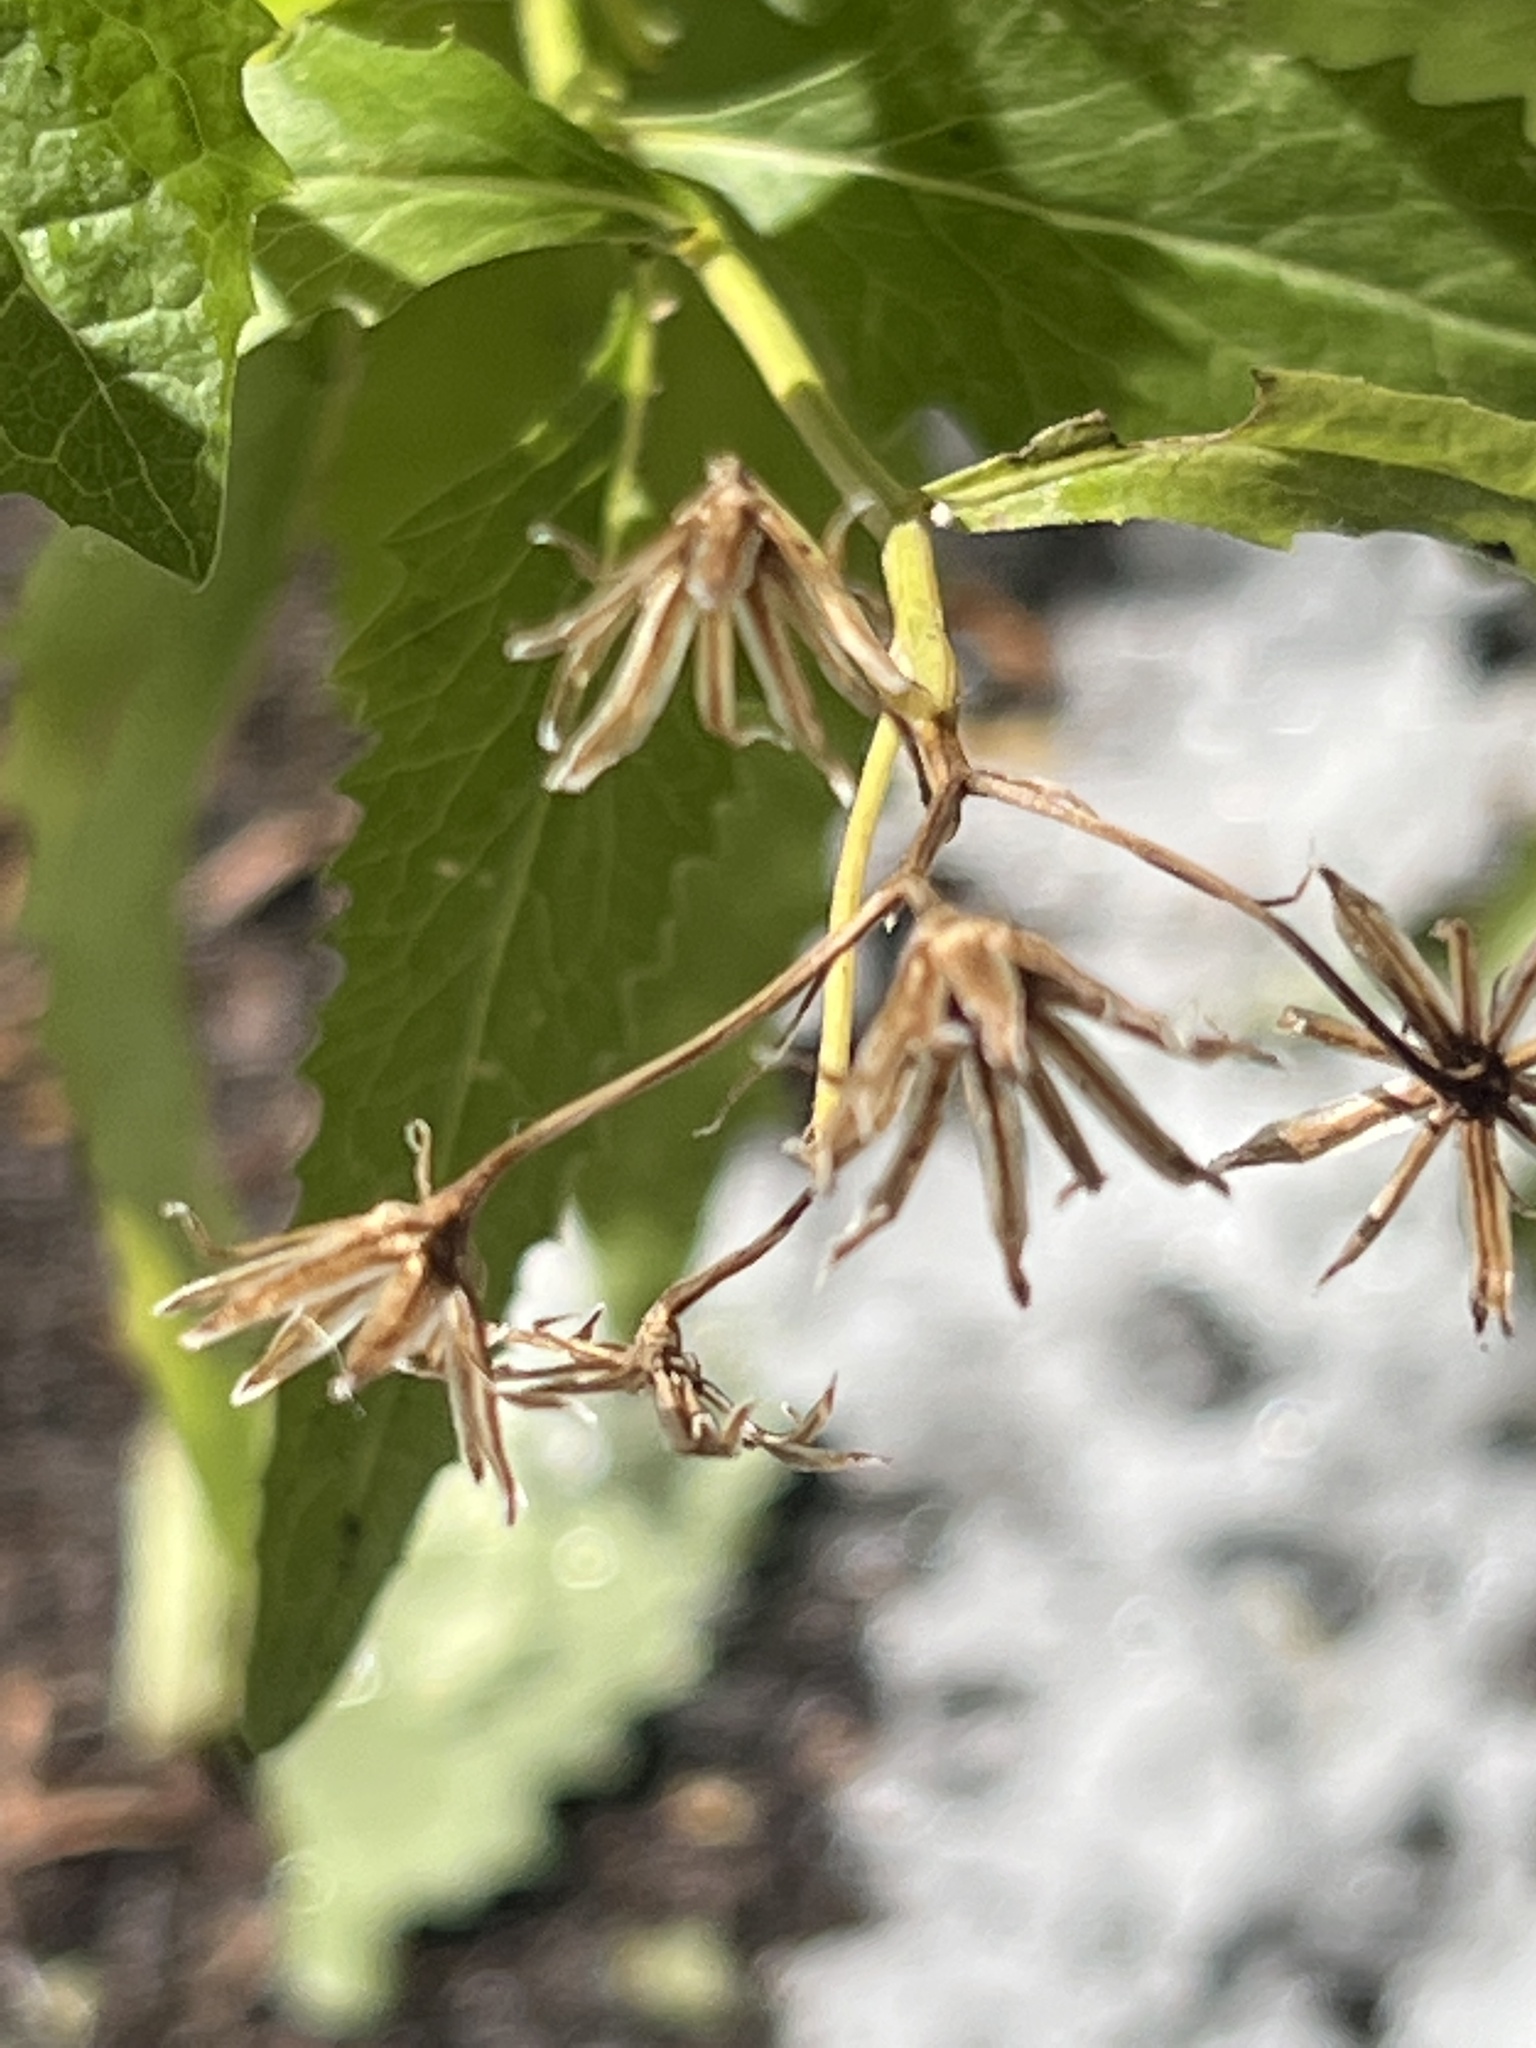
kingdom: Plantae
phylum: Tracheophyta
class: Liliopsida
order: Poales
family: Poaceae
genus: Koeleria
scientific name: Koeleria spicata
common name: Mountain trisetum
